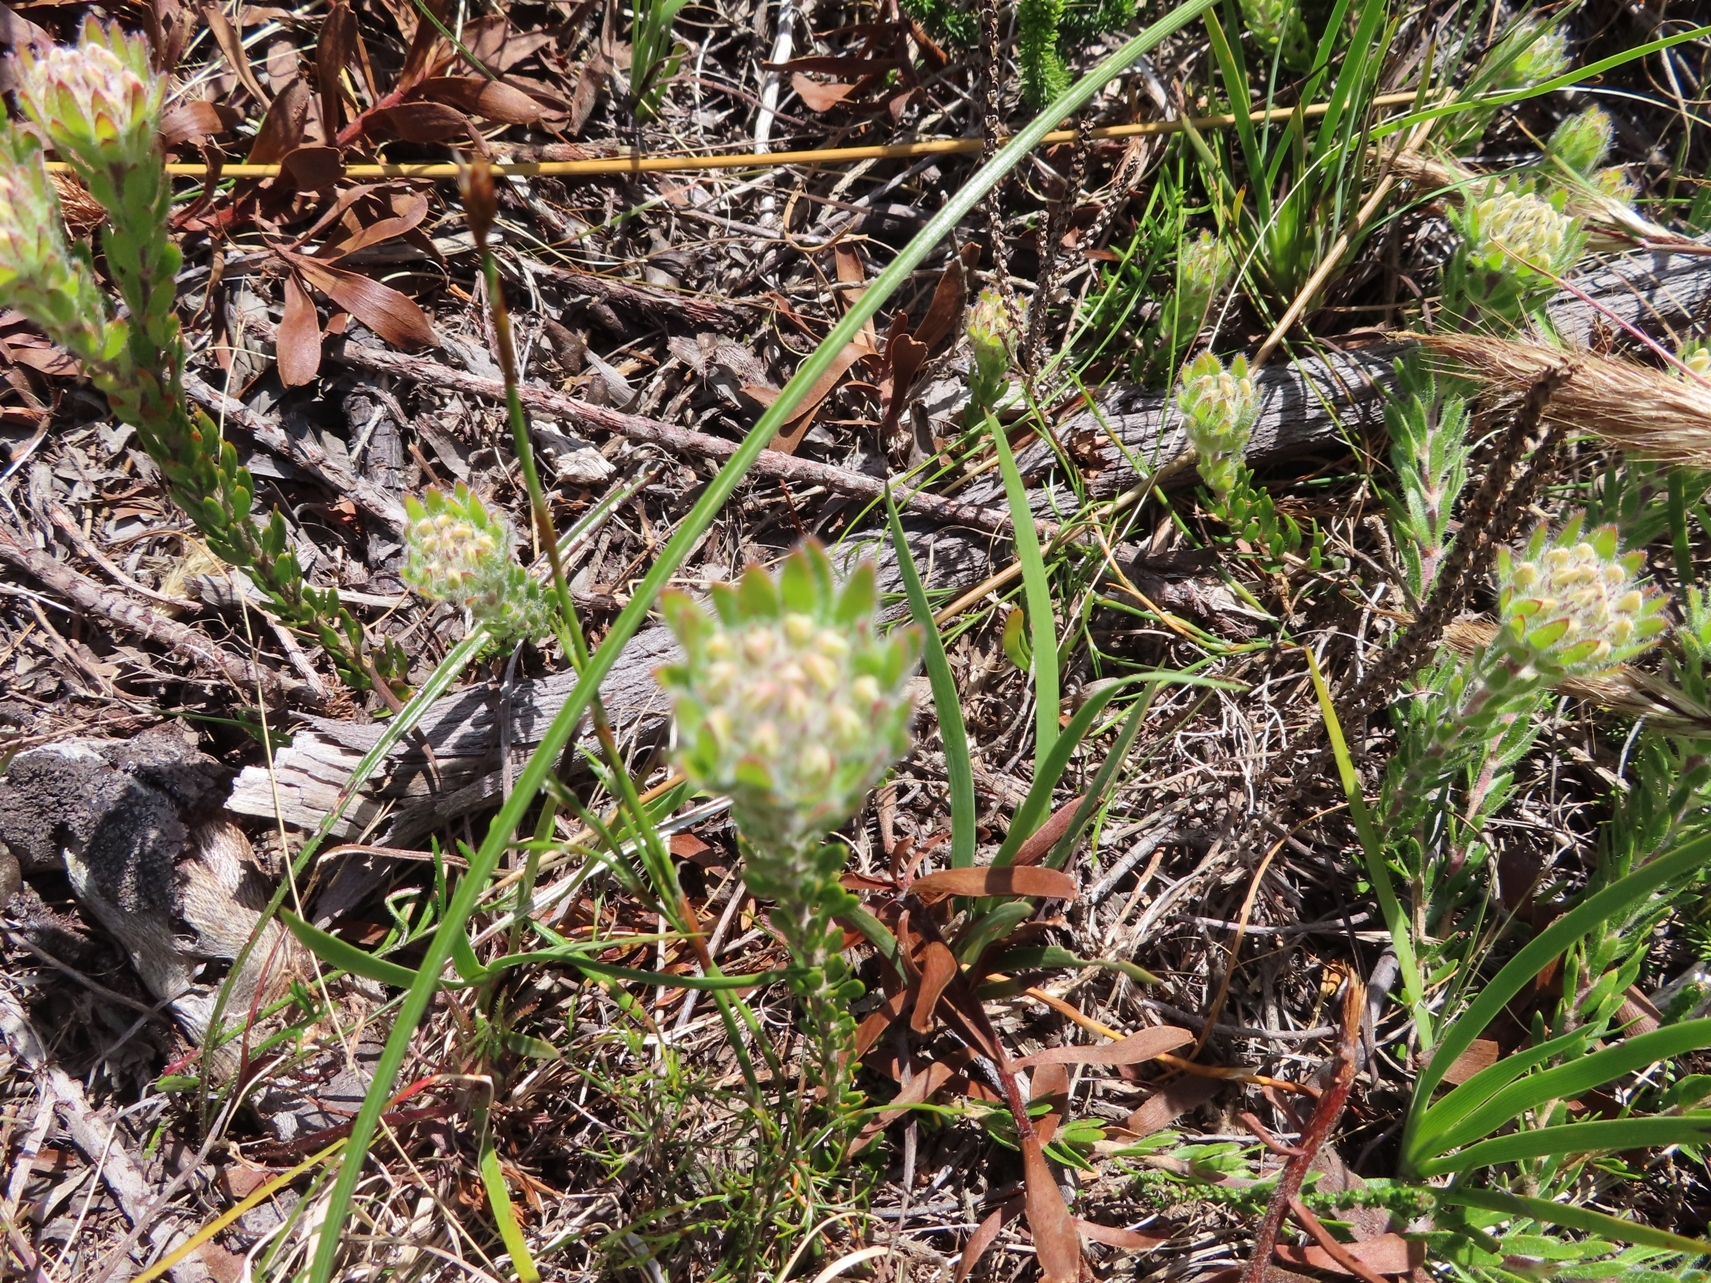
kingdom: Plantae
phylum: Tracheophyta
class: Magnoliopsida
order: Fabales
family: Fabaceae
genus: Aspalathus
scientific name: Aspalathus aspalathoides
